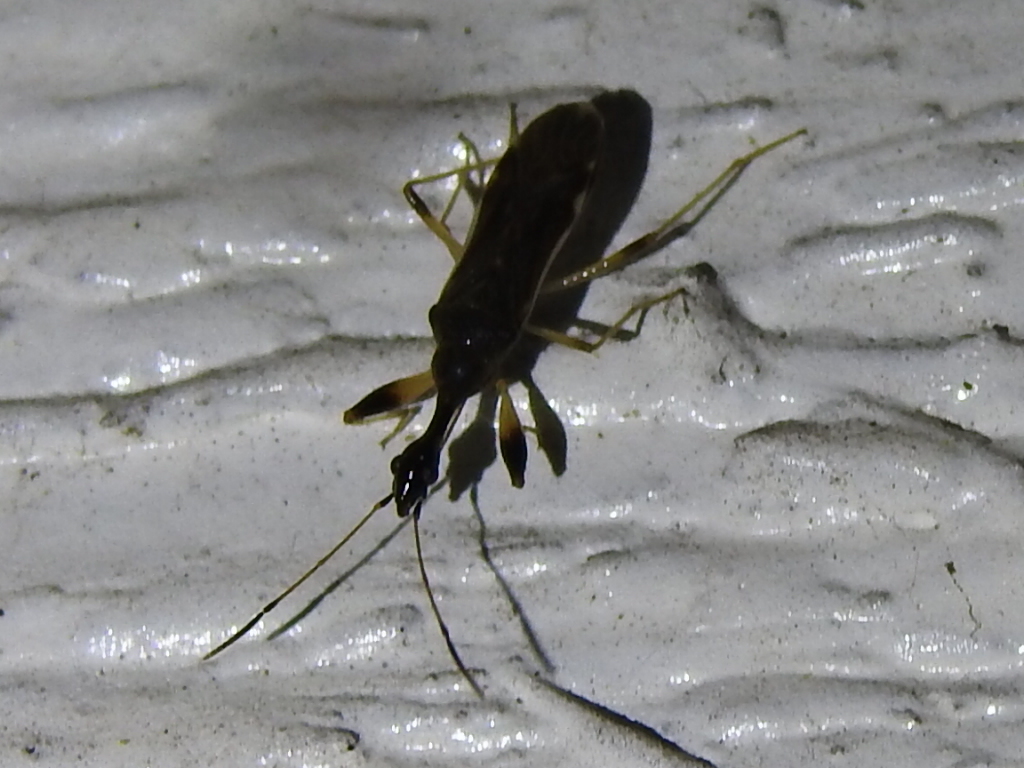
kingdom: Animalia
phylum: Arthropoda
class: Insecta
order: Hemiptera
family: Rhyparochromidae
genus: Myodocha
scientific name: Myodocha serripes
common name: Long-necked seed bug
